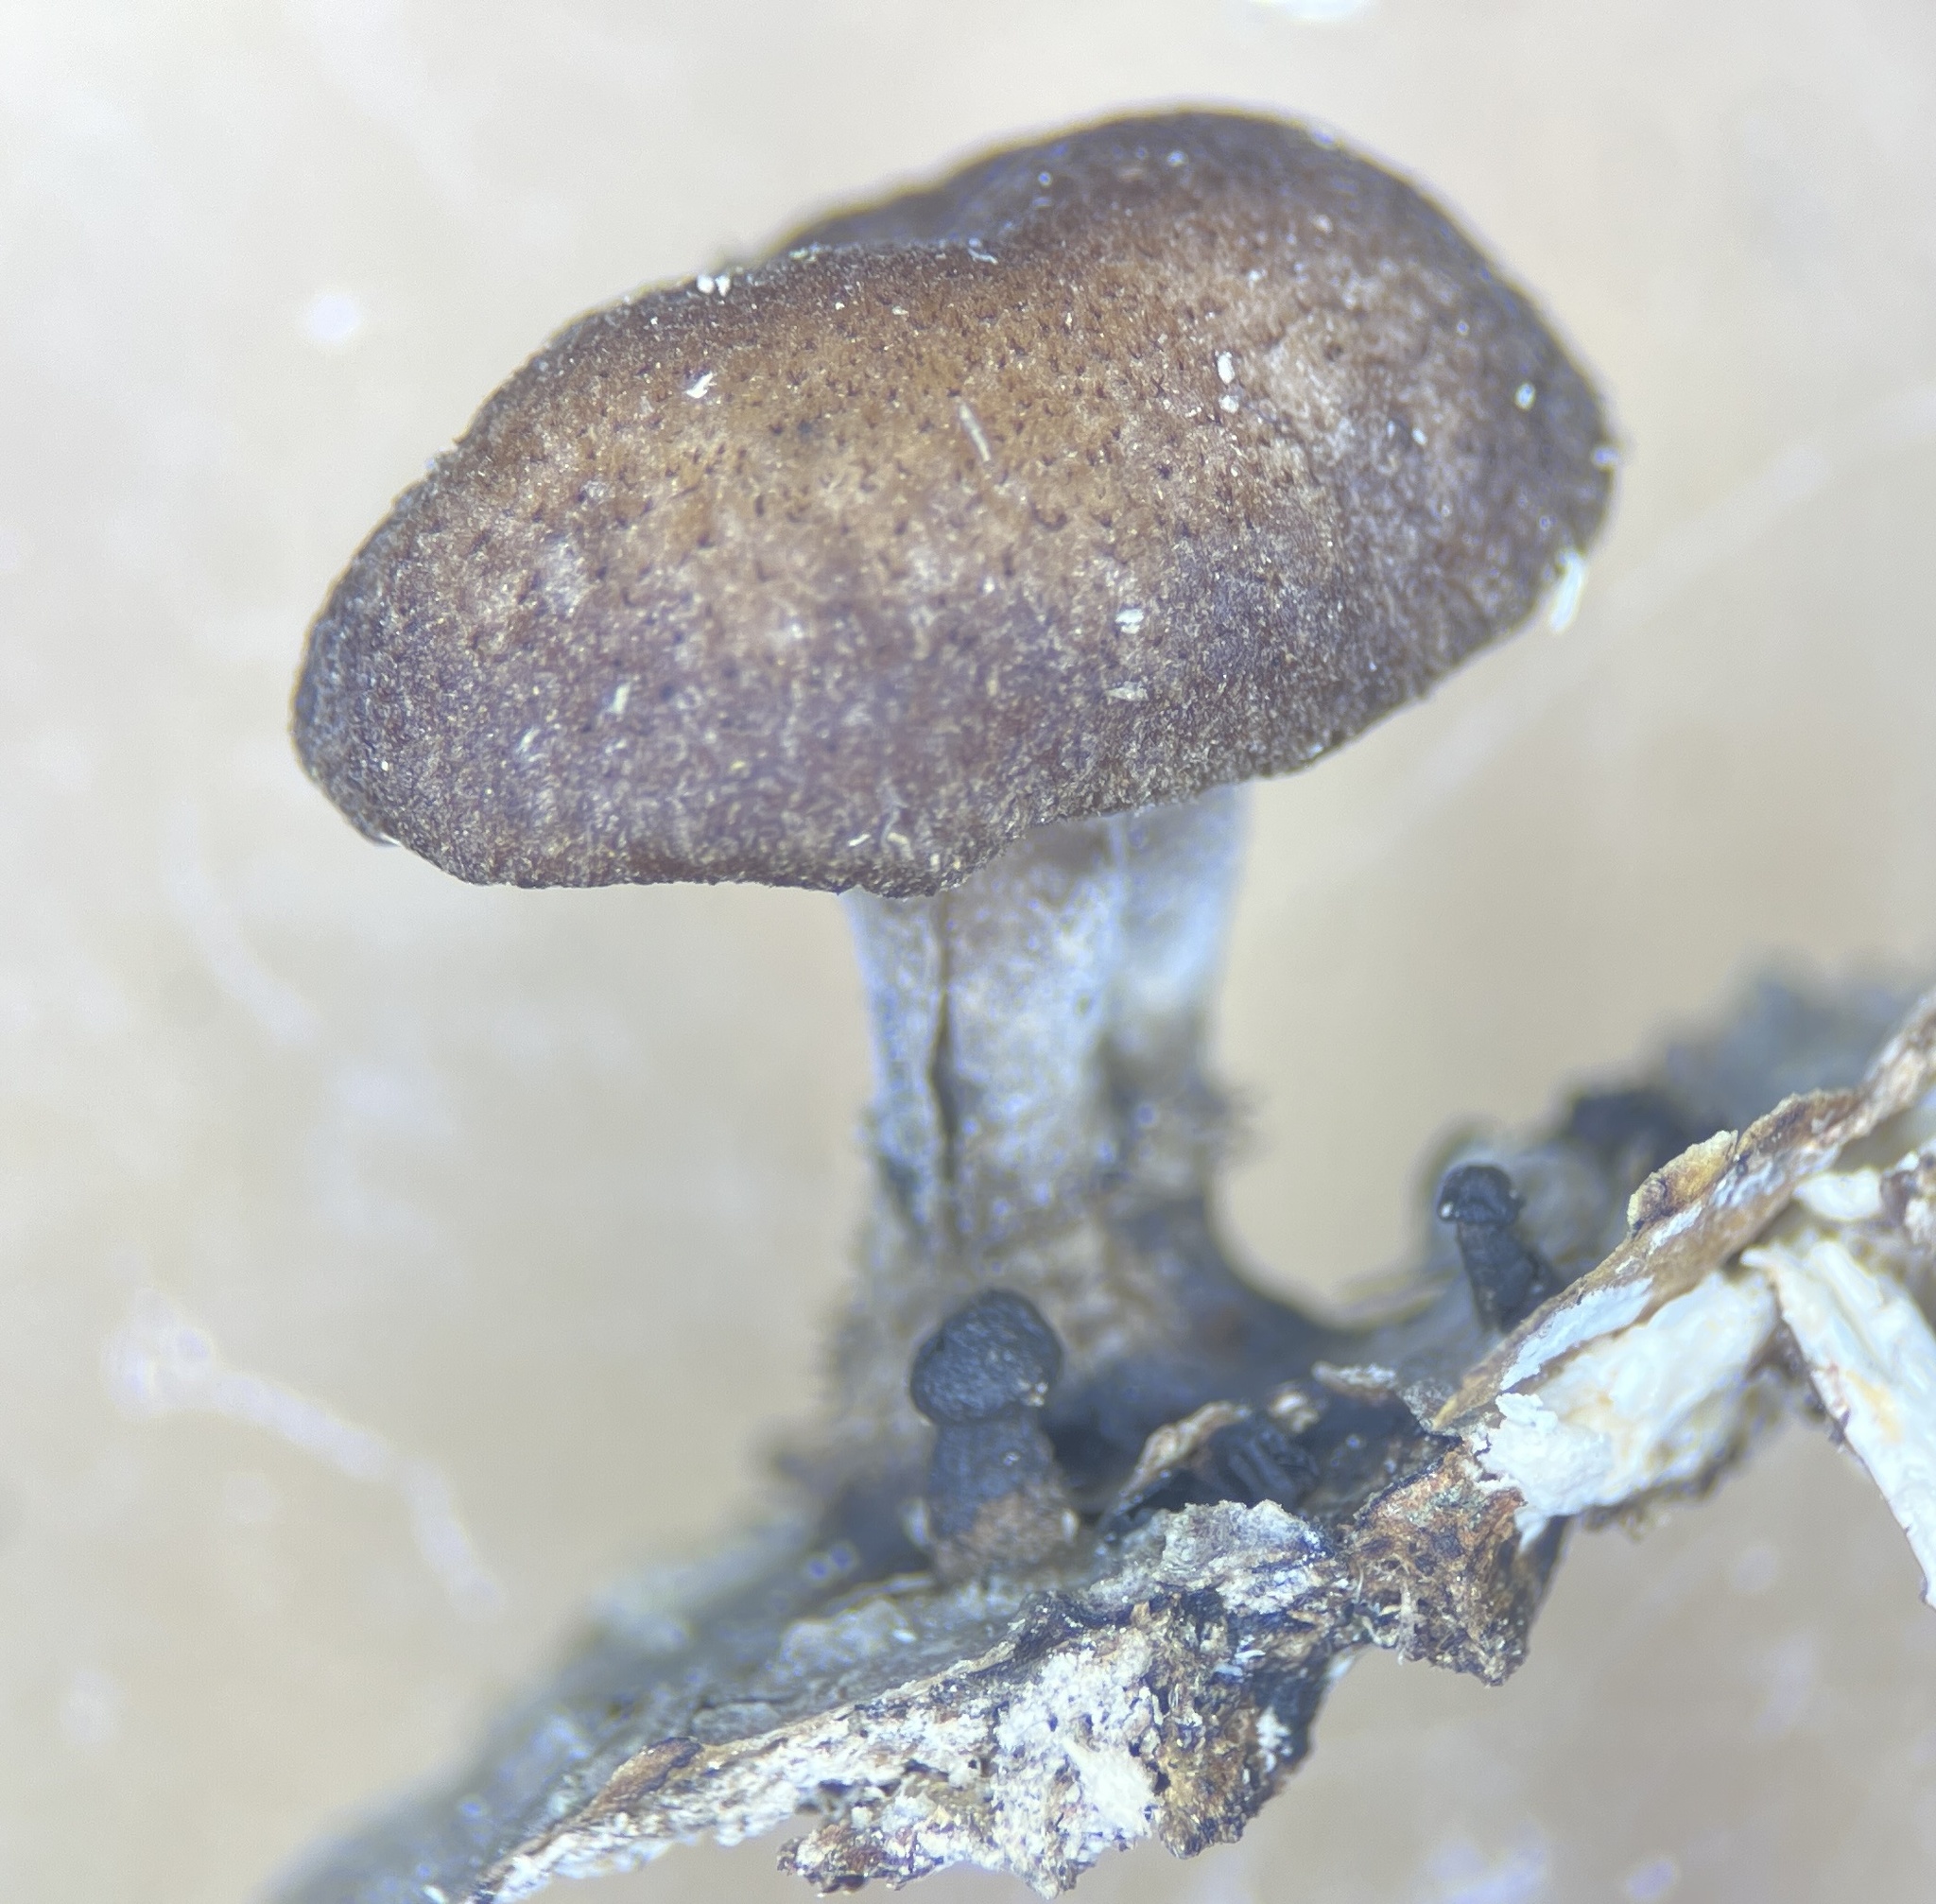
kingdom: Fungi
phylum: Basidiomycota
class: Agaricomycetes
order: Agaricales
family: Omphalotaceae
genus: Collybiopsis
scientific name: Collybiopsis dichroa
